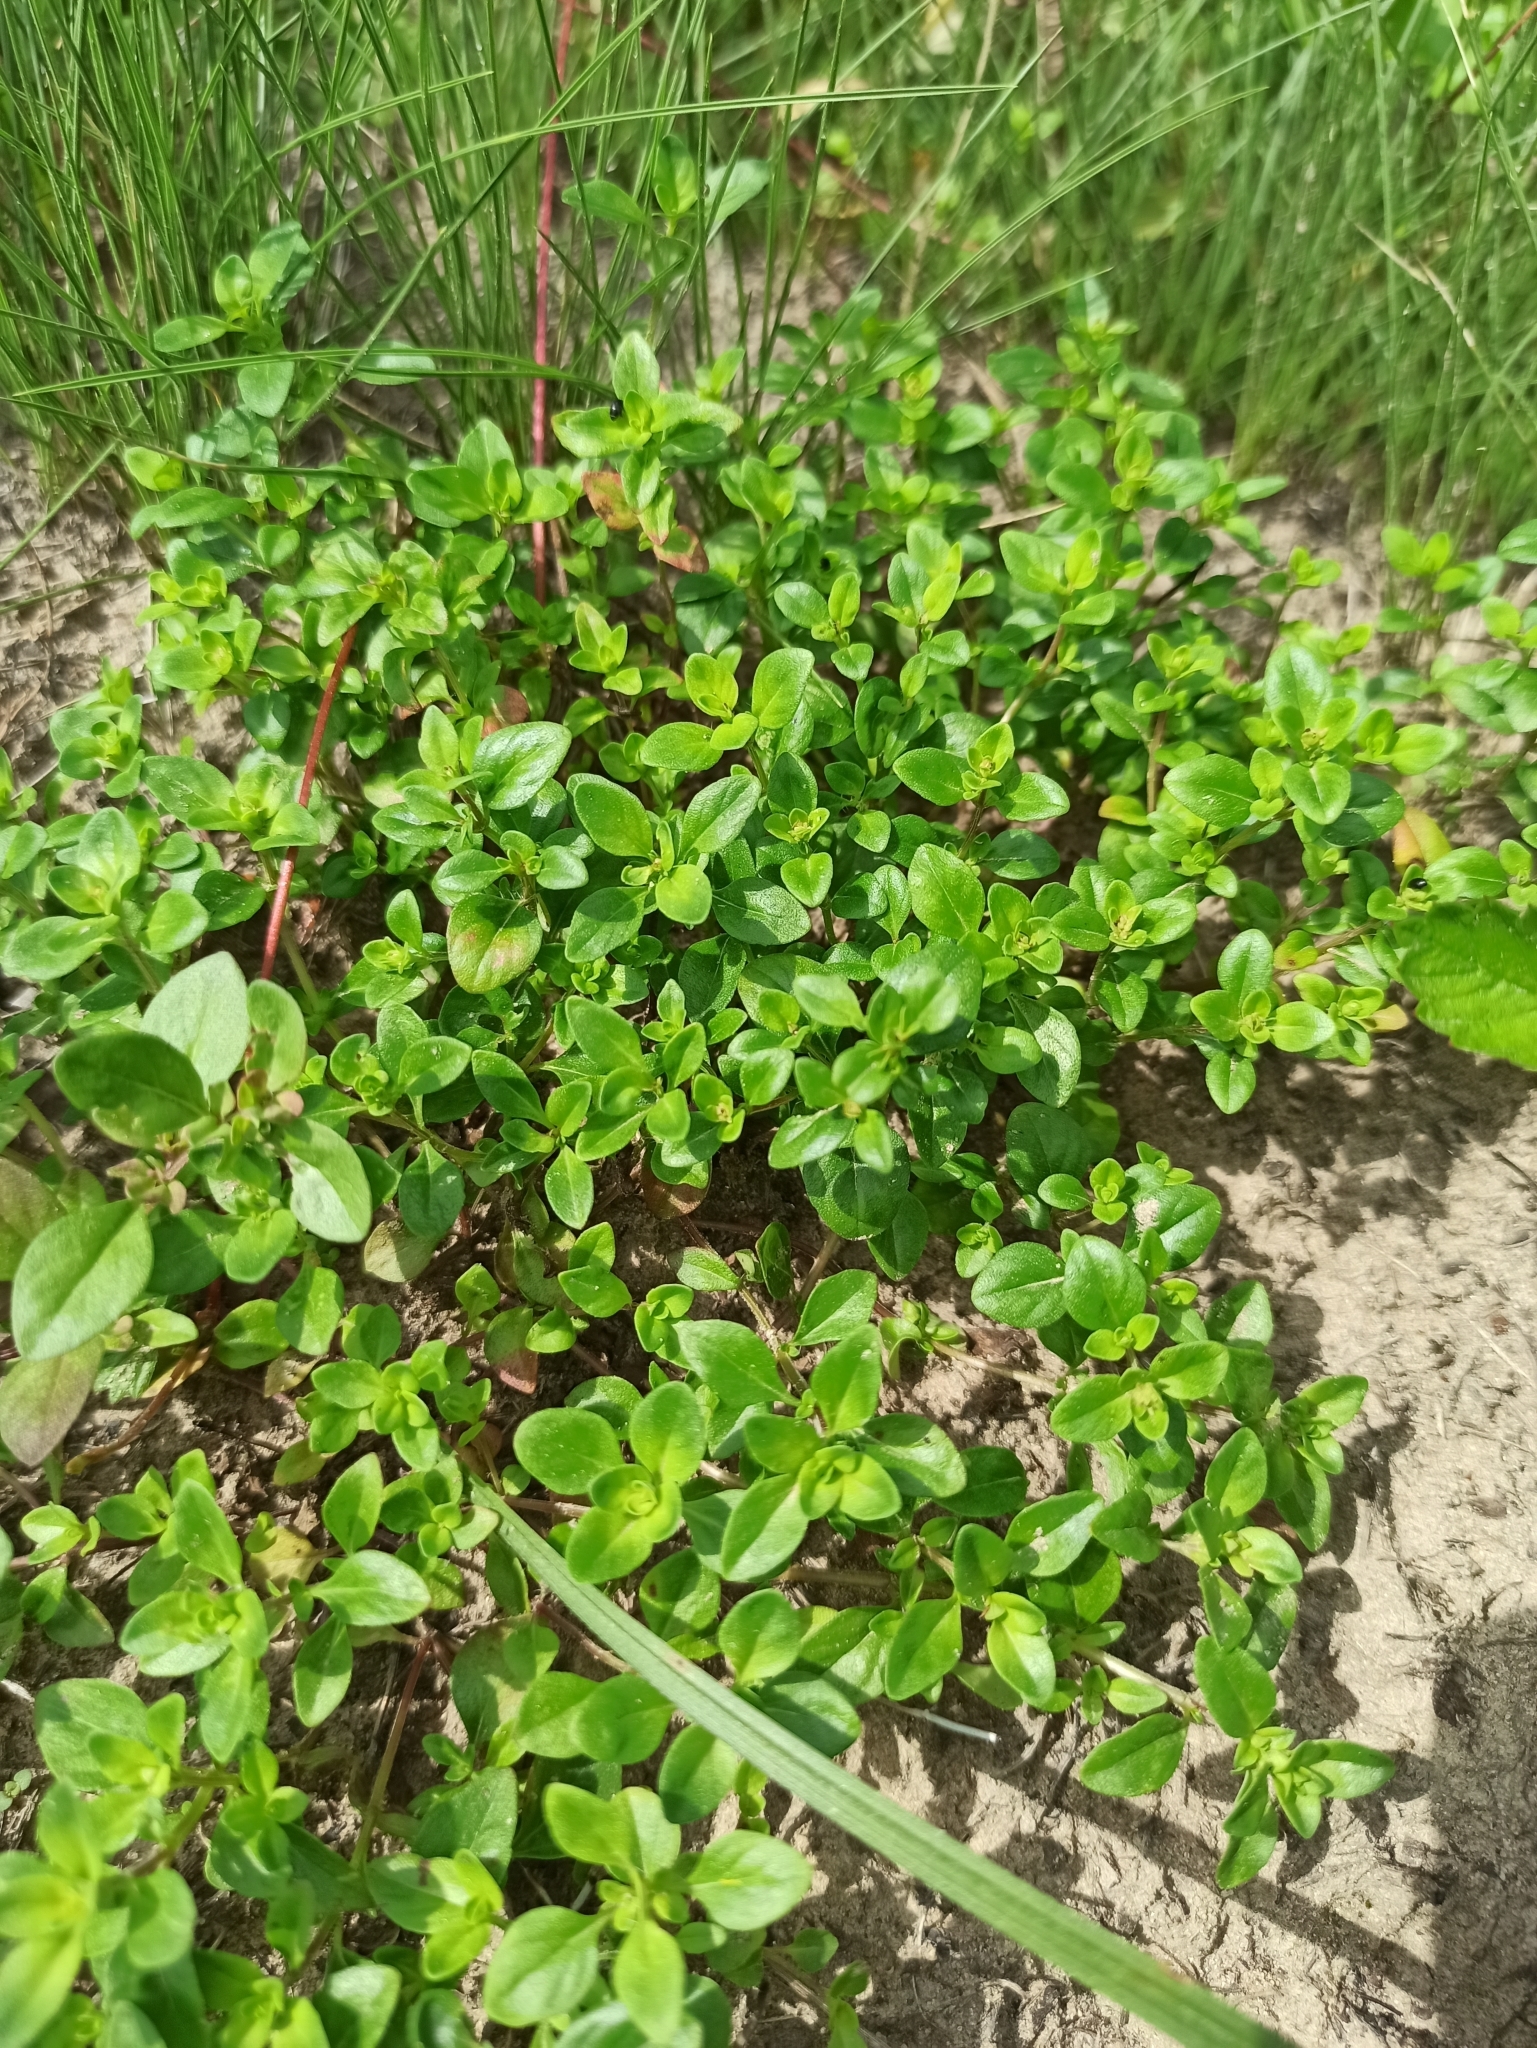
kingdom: Plantae
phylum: Tracheophyta
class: Magnoliopsida
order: Lamiales
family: Lamiaceae
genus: Thymus
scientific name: Thymus pulegioides
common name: Large thyme
